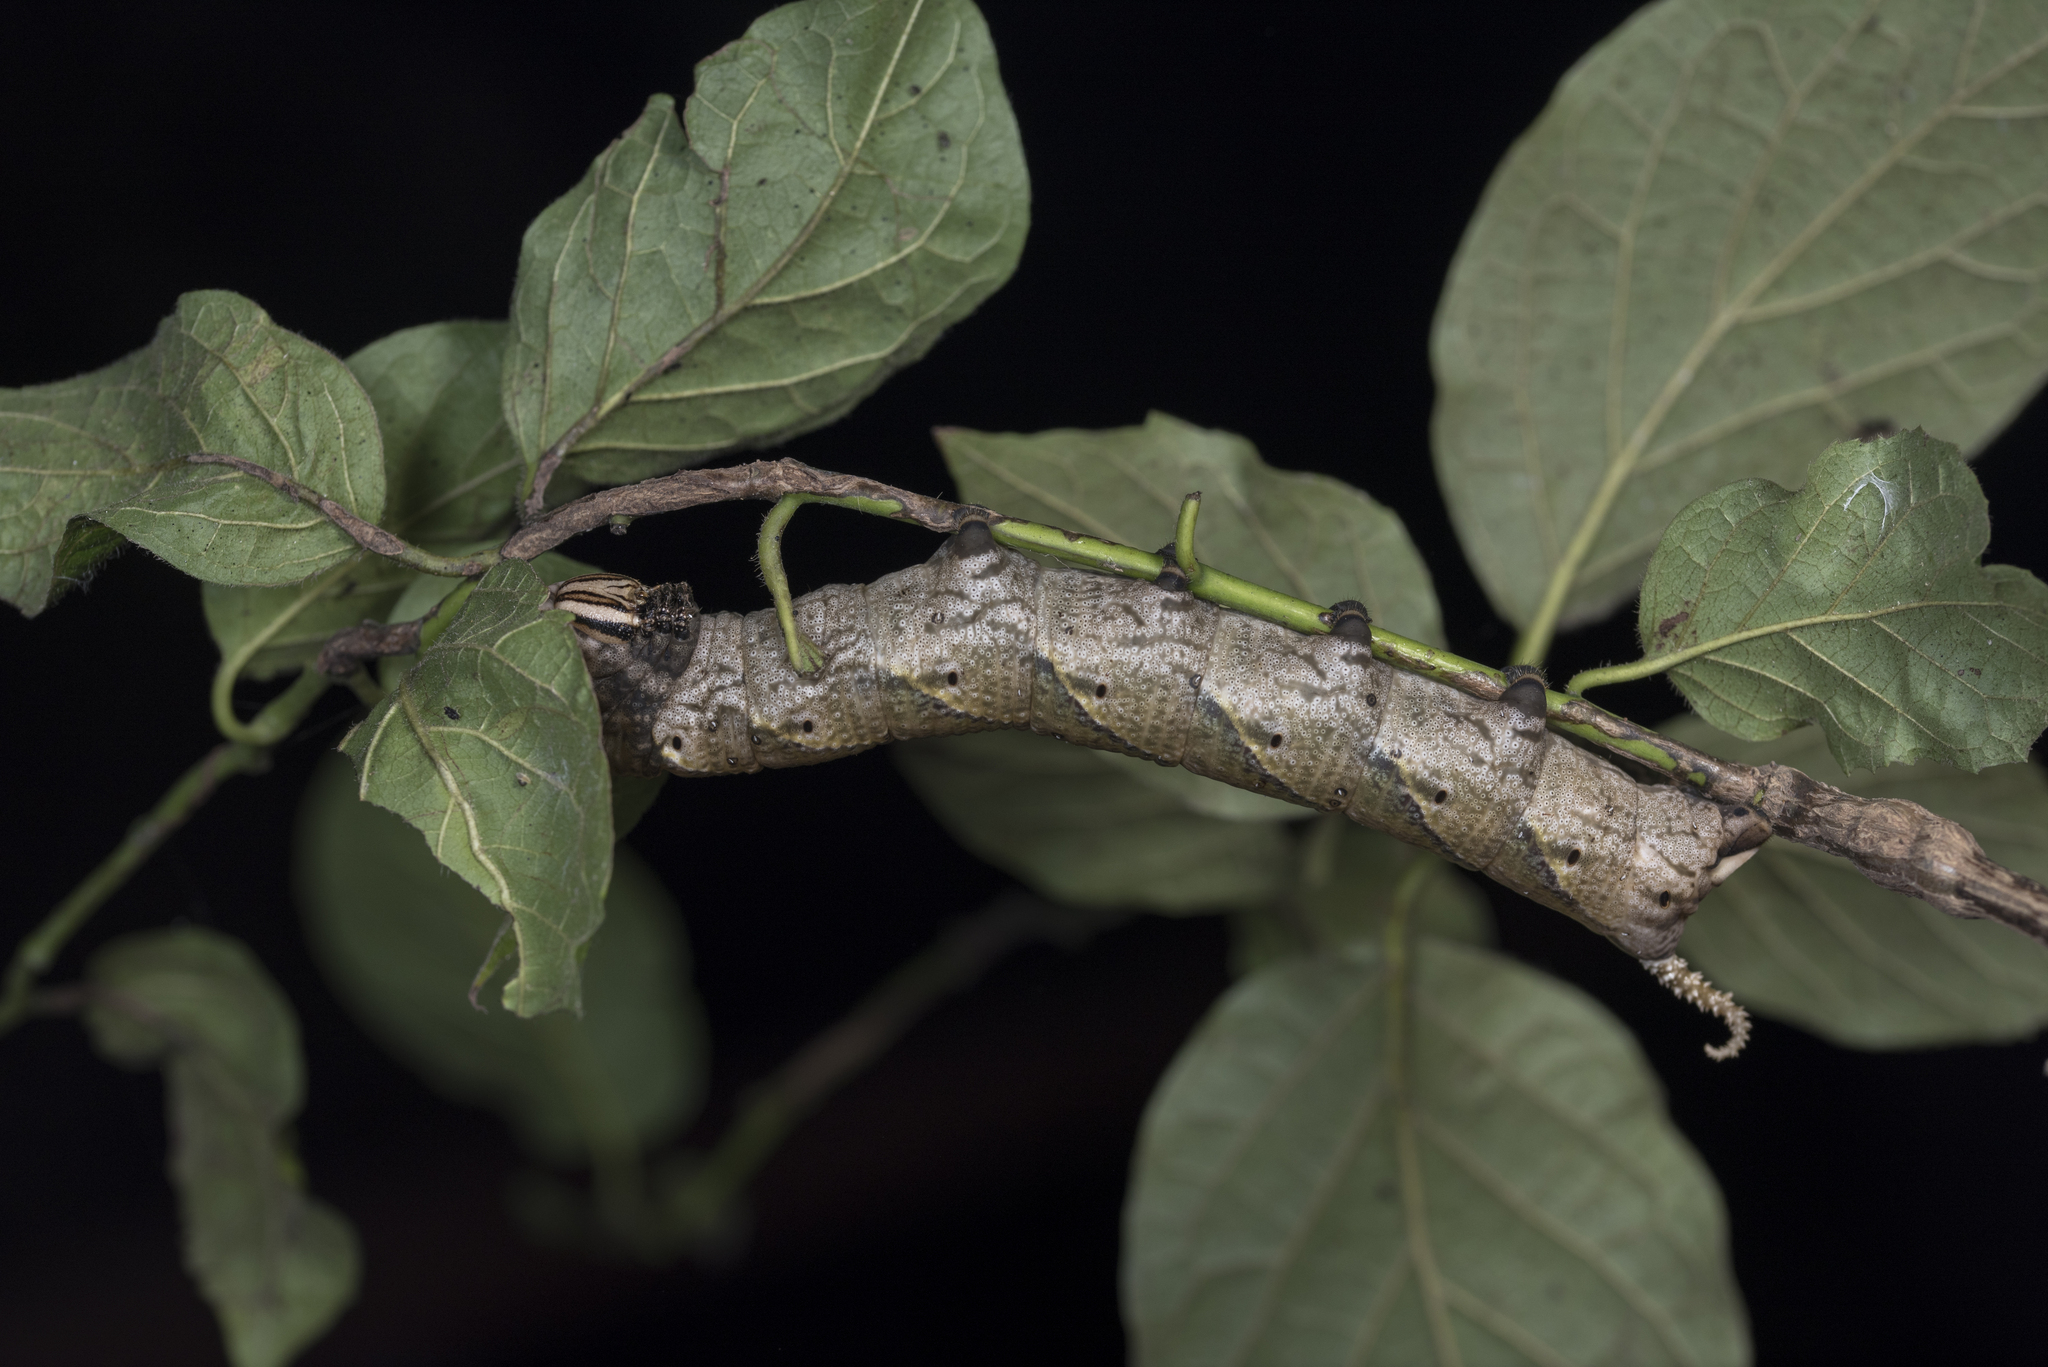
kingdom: Animalia
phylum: Arthropoda
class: Insecta
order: Lepidoptera
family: Sphingidae
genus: Acherontia
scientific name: Acherontia lachesis
